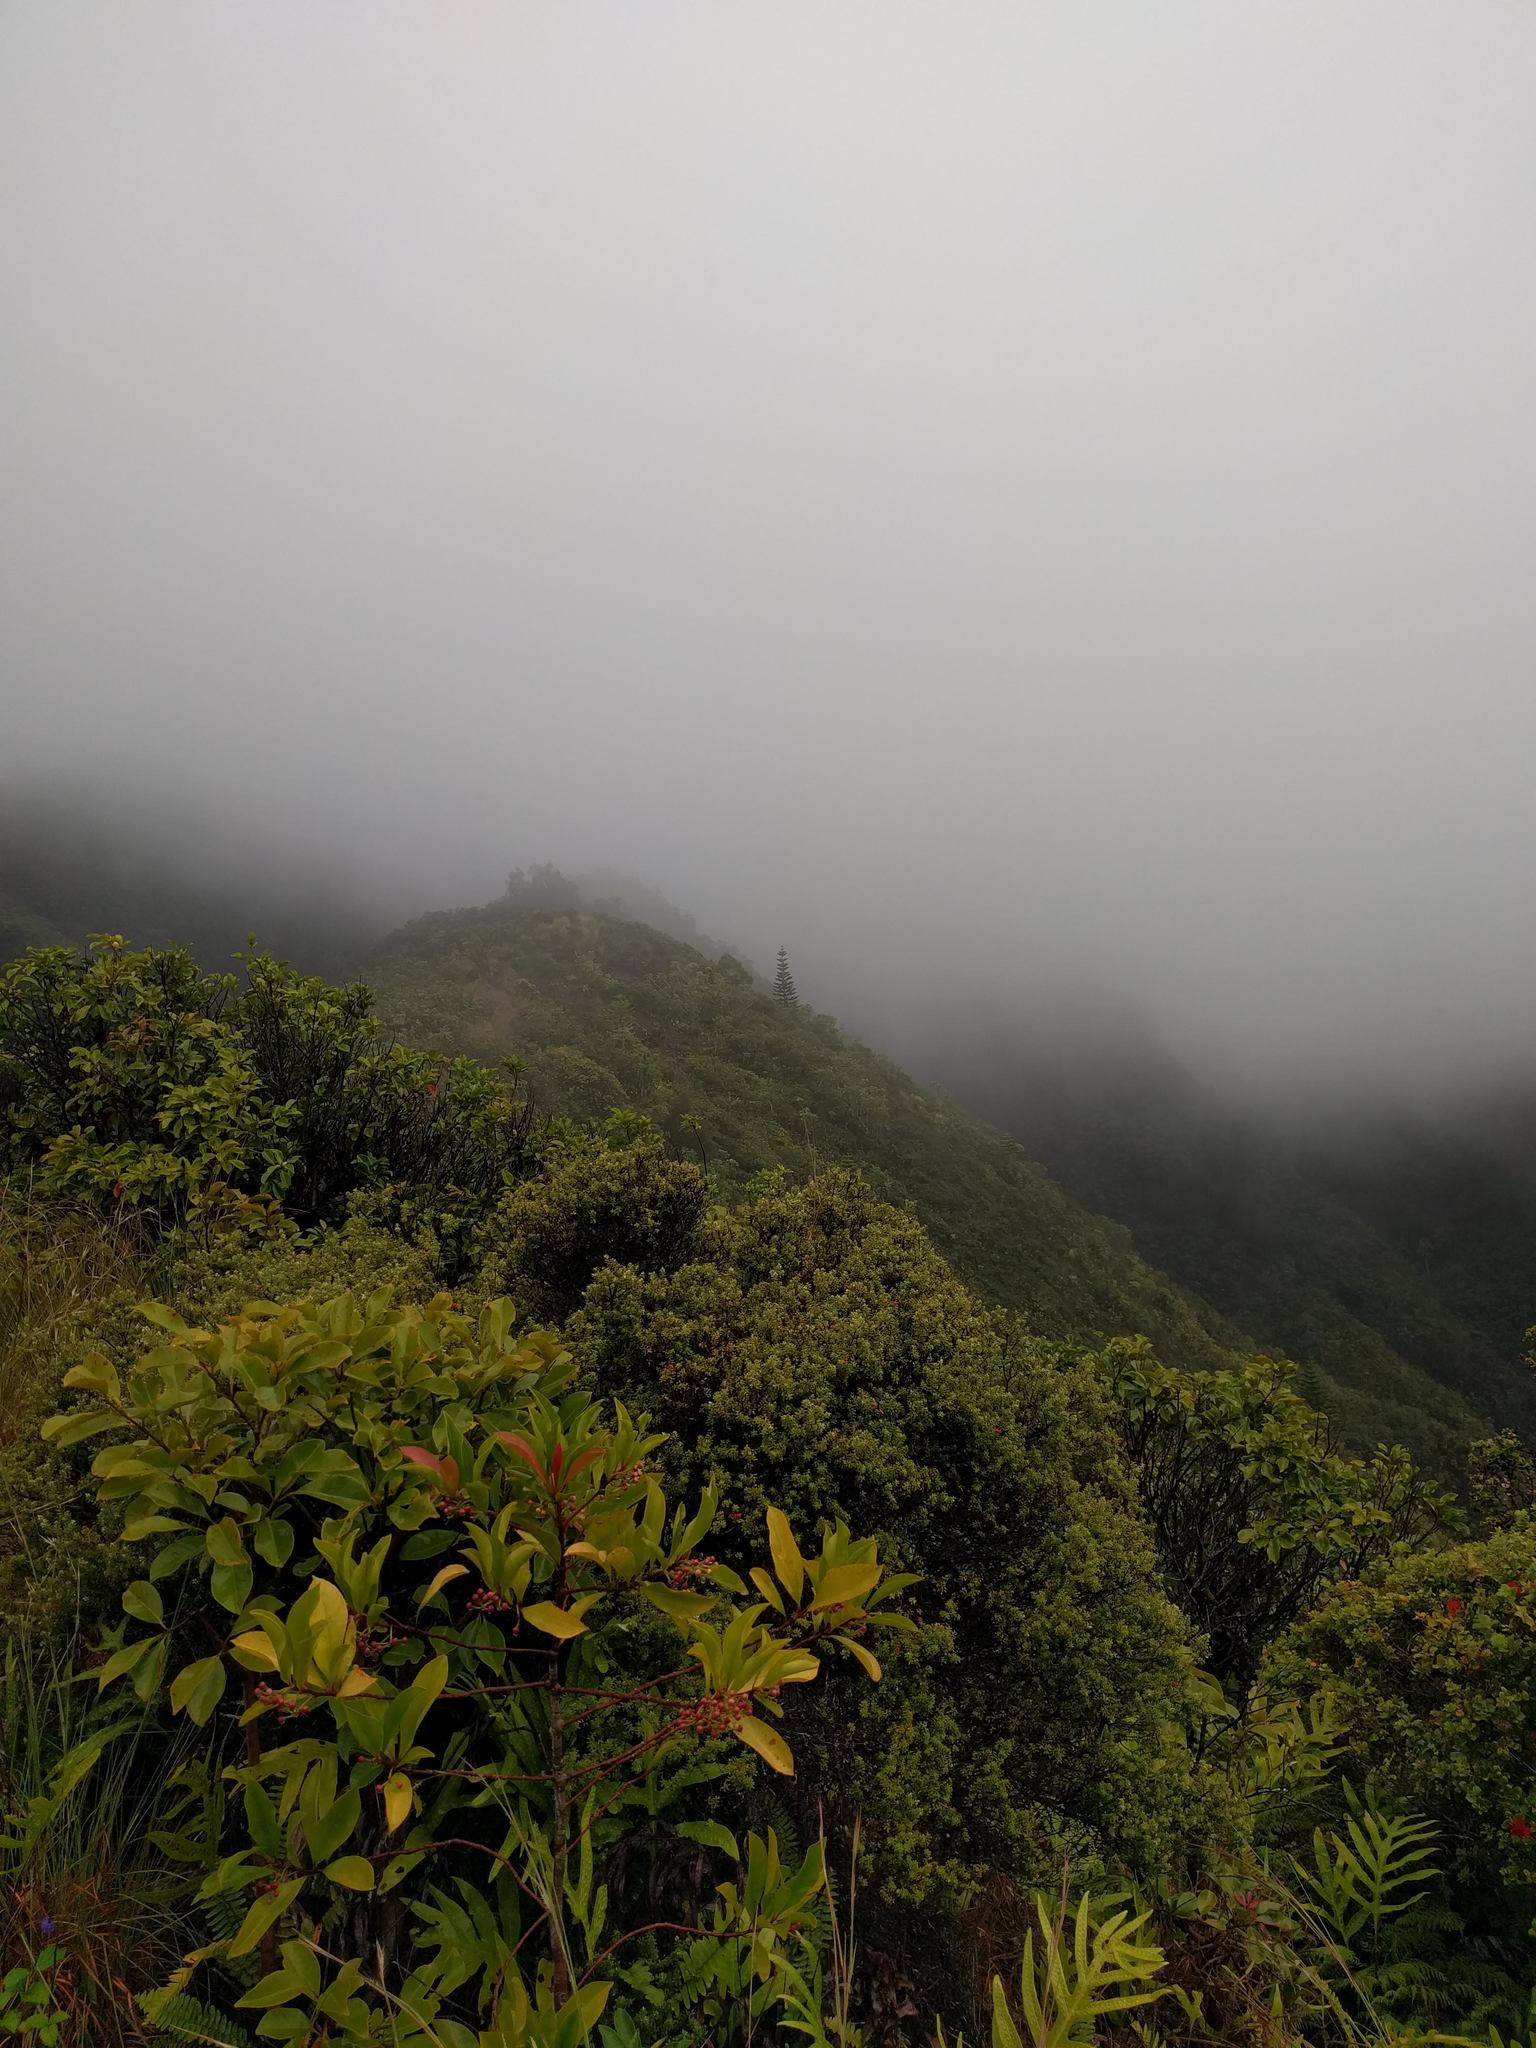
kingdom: Plantae
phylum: Tracheophyta
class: Magnoliopsida
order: Ericales
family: Primulaceae
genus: Ardisia
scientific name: Ardisia elliptica
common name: Shoebutton
